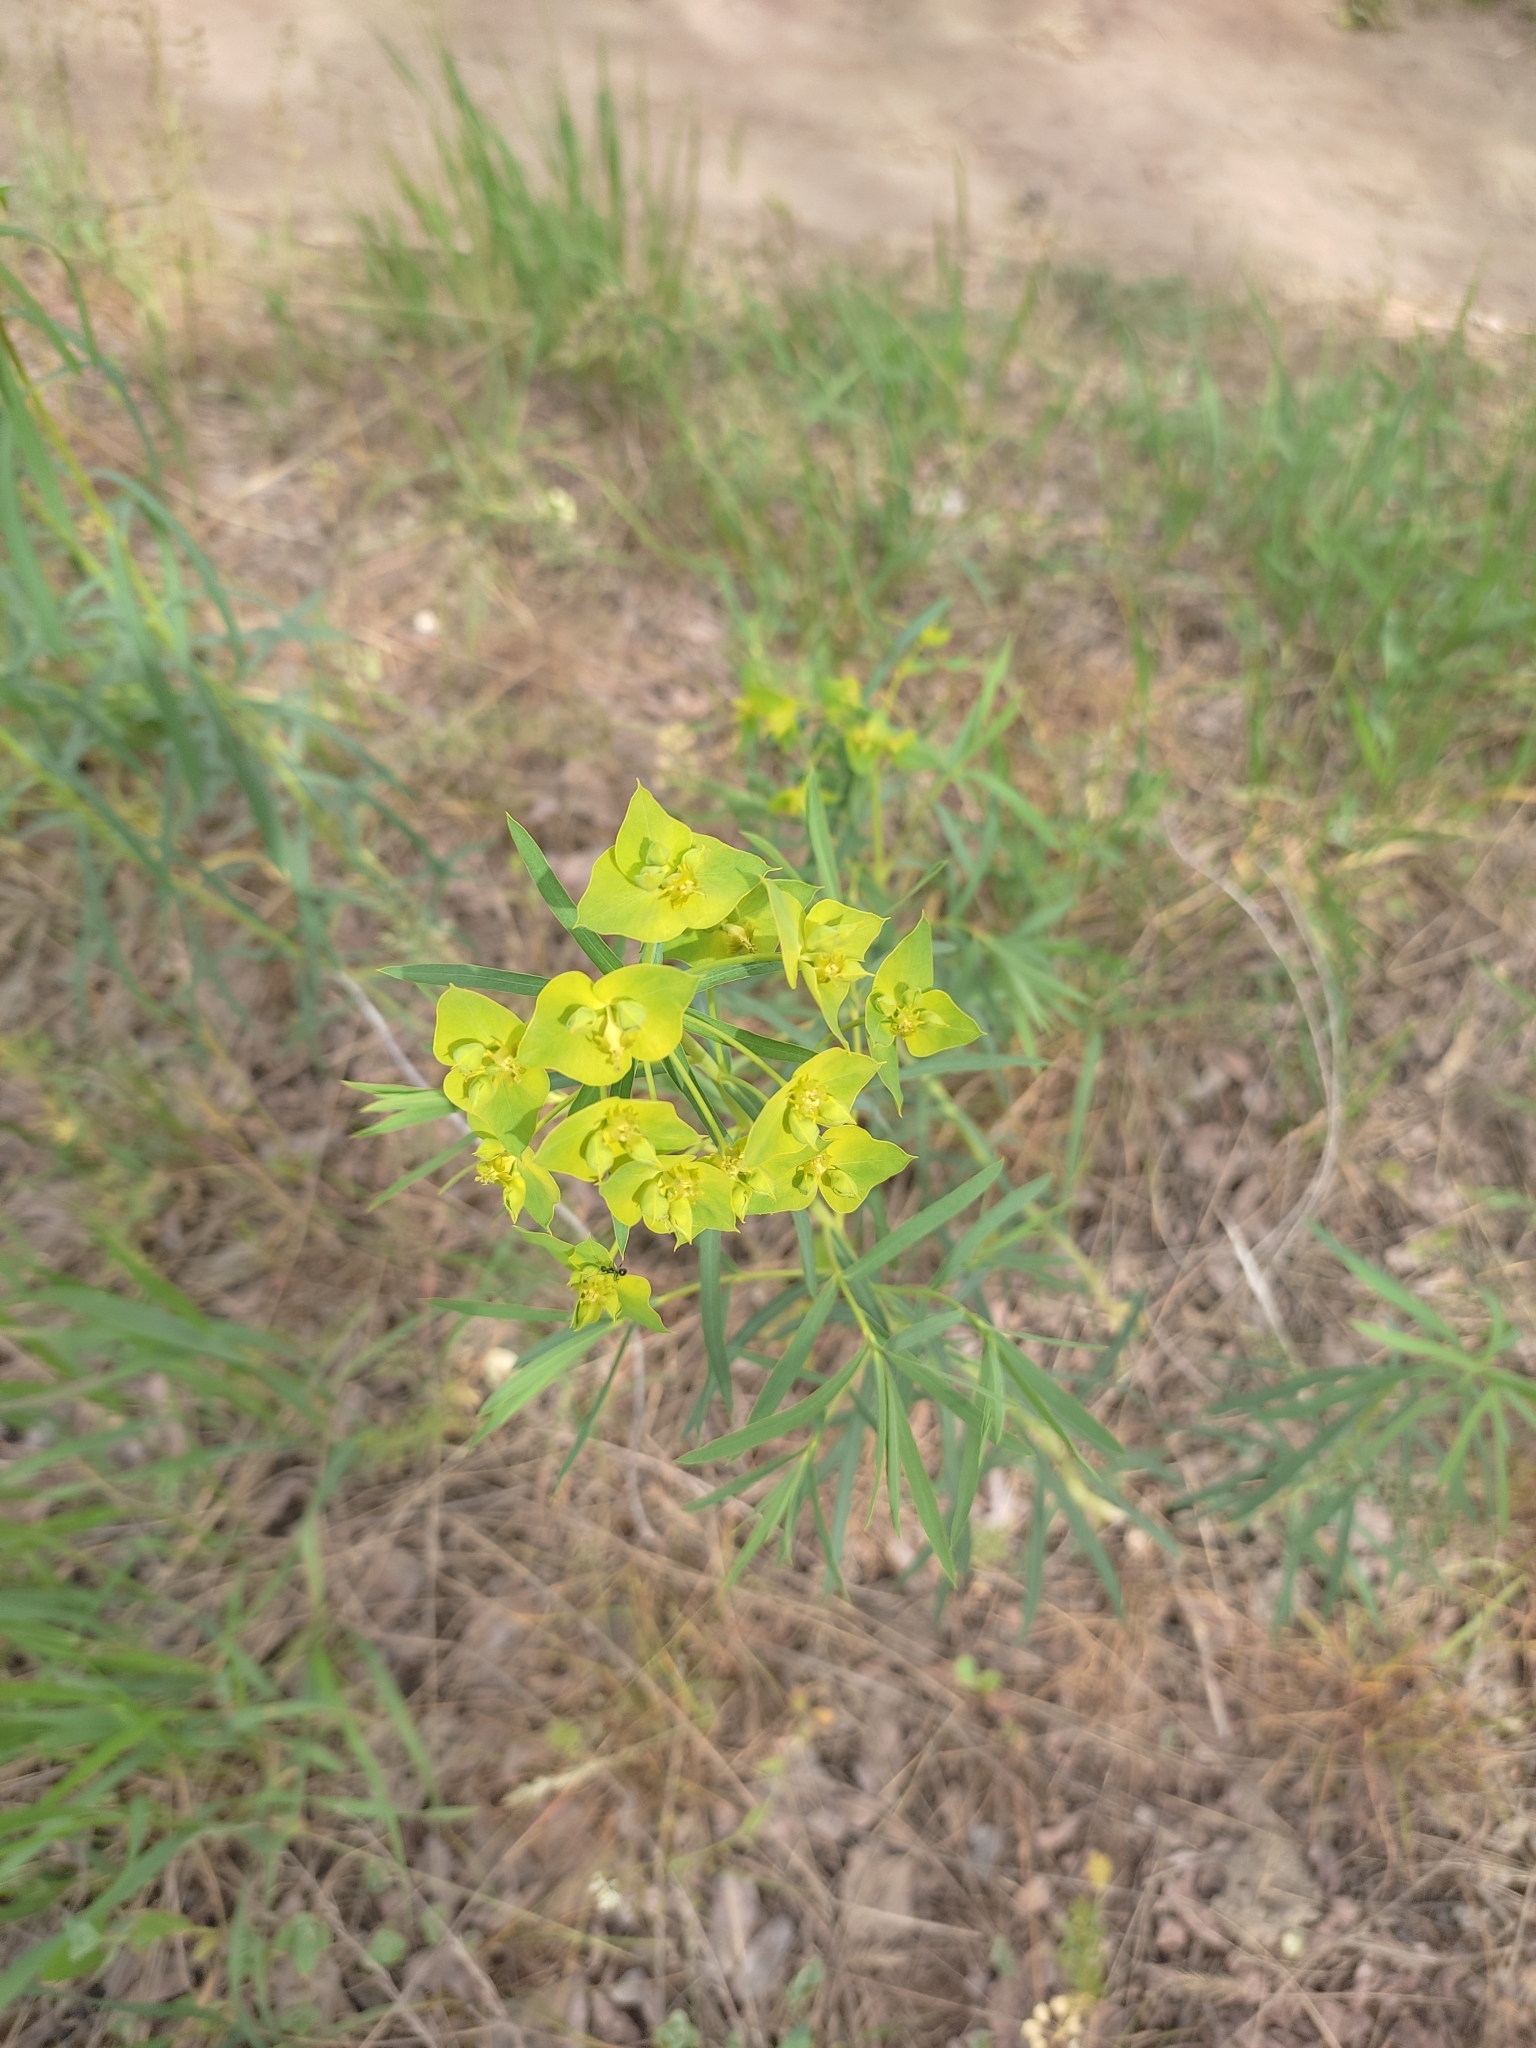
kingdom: Plantae
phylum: Tracheophyta
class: Magnoliopsida
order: Malpighiales
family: Euphorbiaceae
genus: Euphorbia
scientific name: Euphorbia virgata
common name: Leafy spurge
